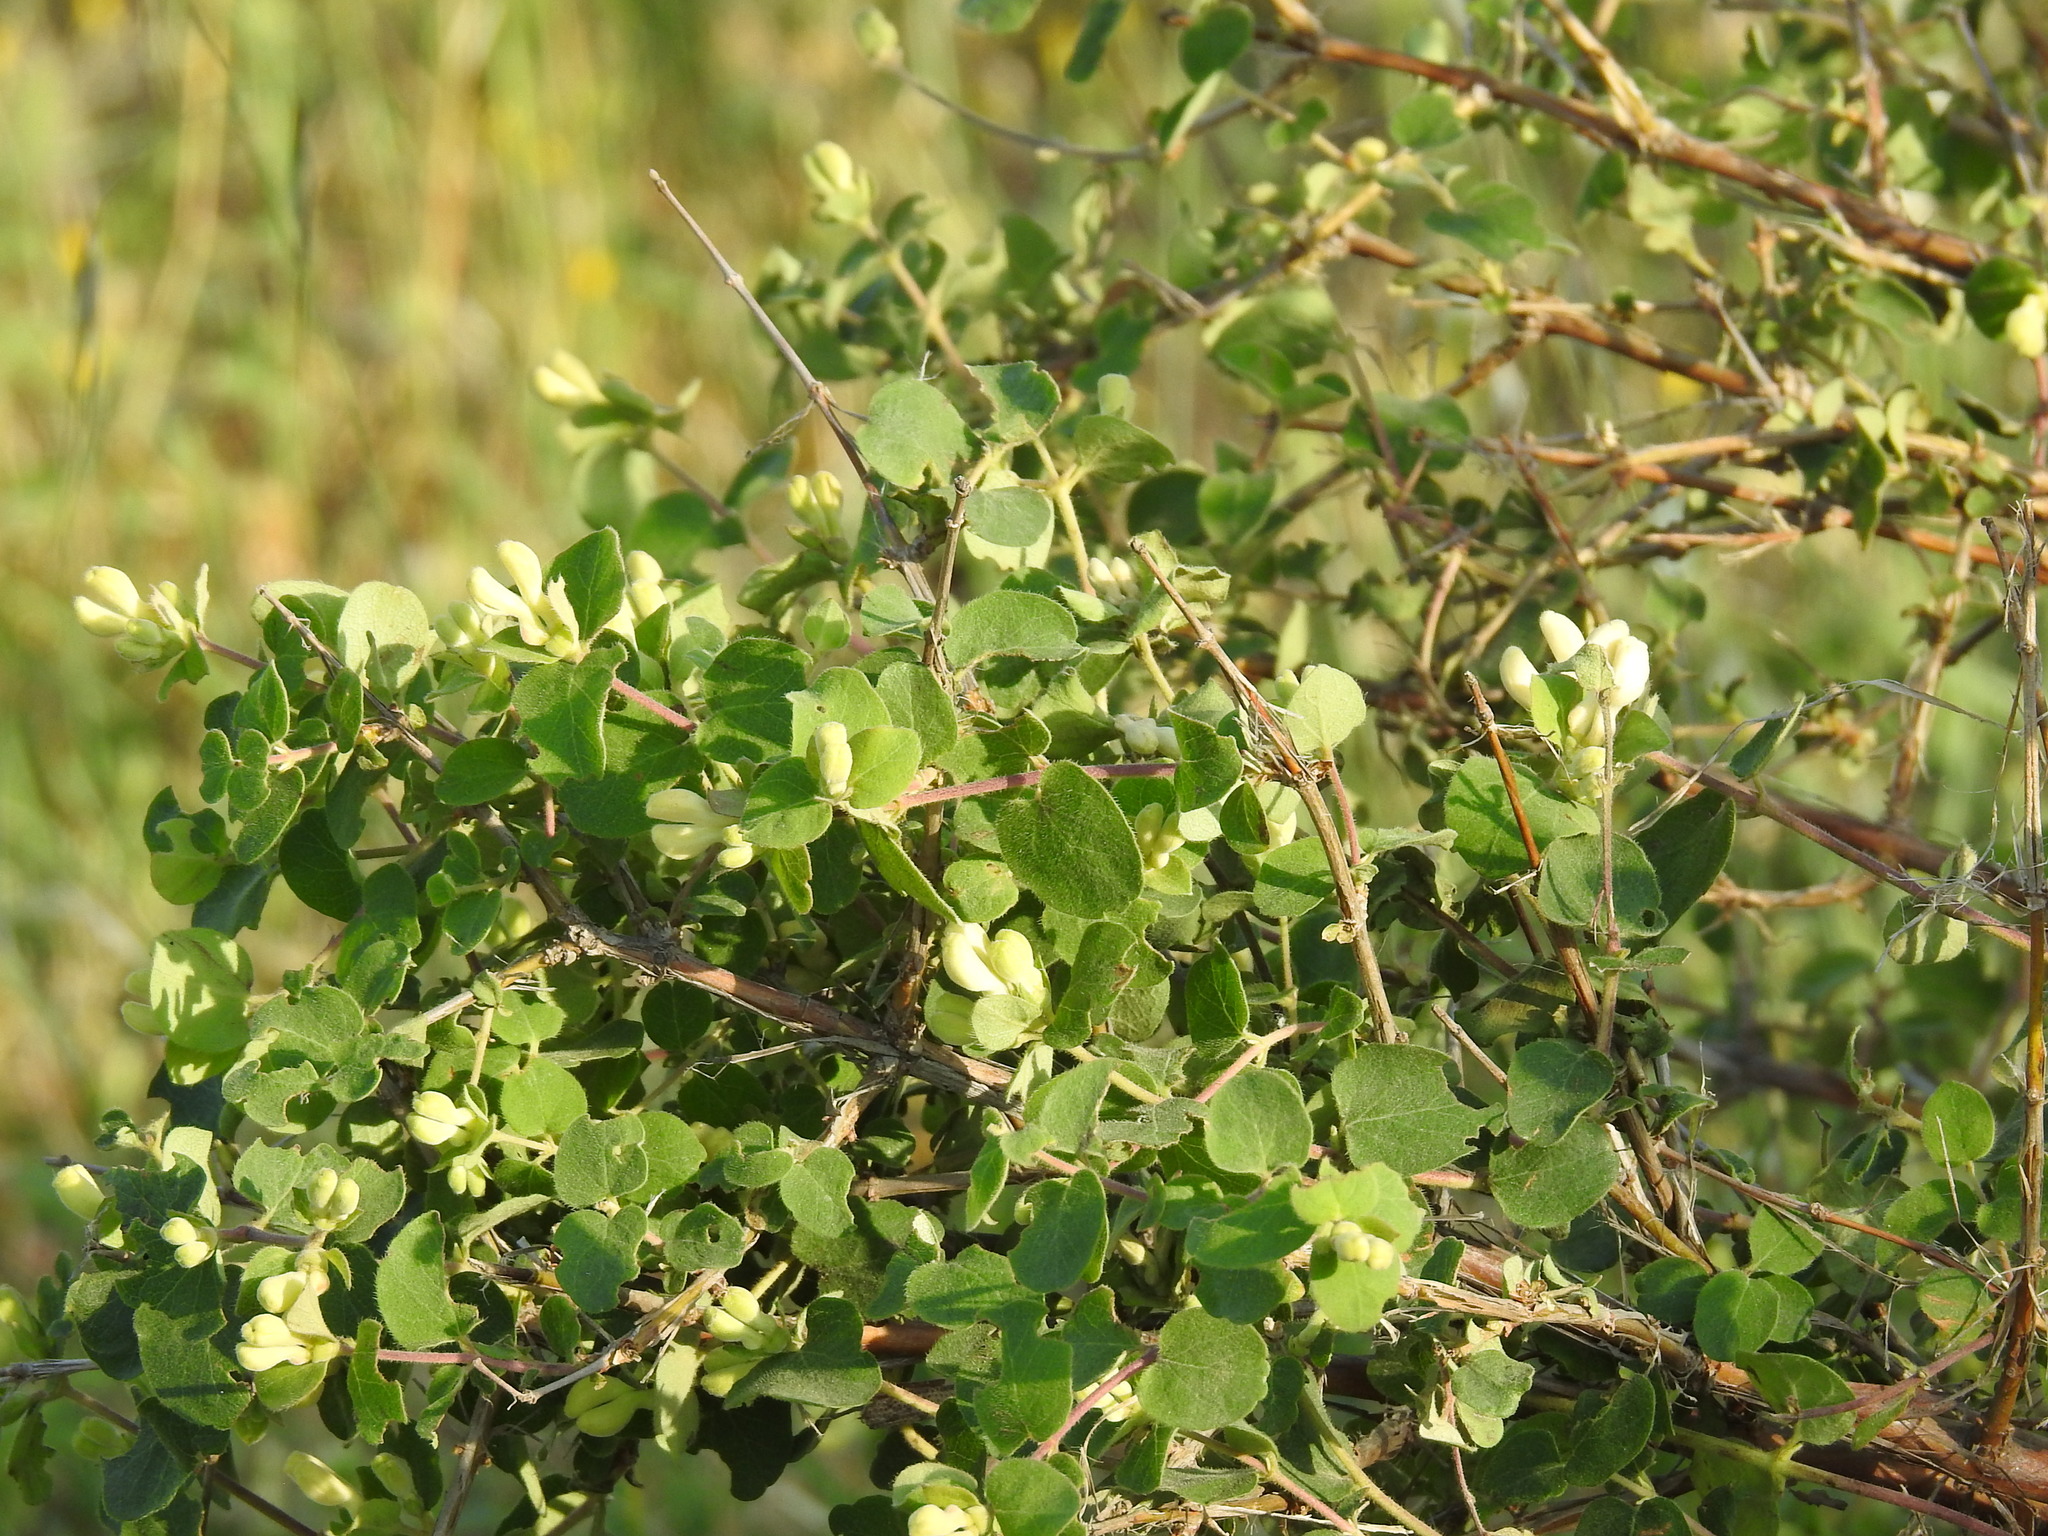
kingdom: Plantae
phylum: Tracheophyta
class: Magnoliopsida
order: Dipsacales
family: Caprifoliaceae
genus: Lonicera
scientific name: Lonicera iberica
